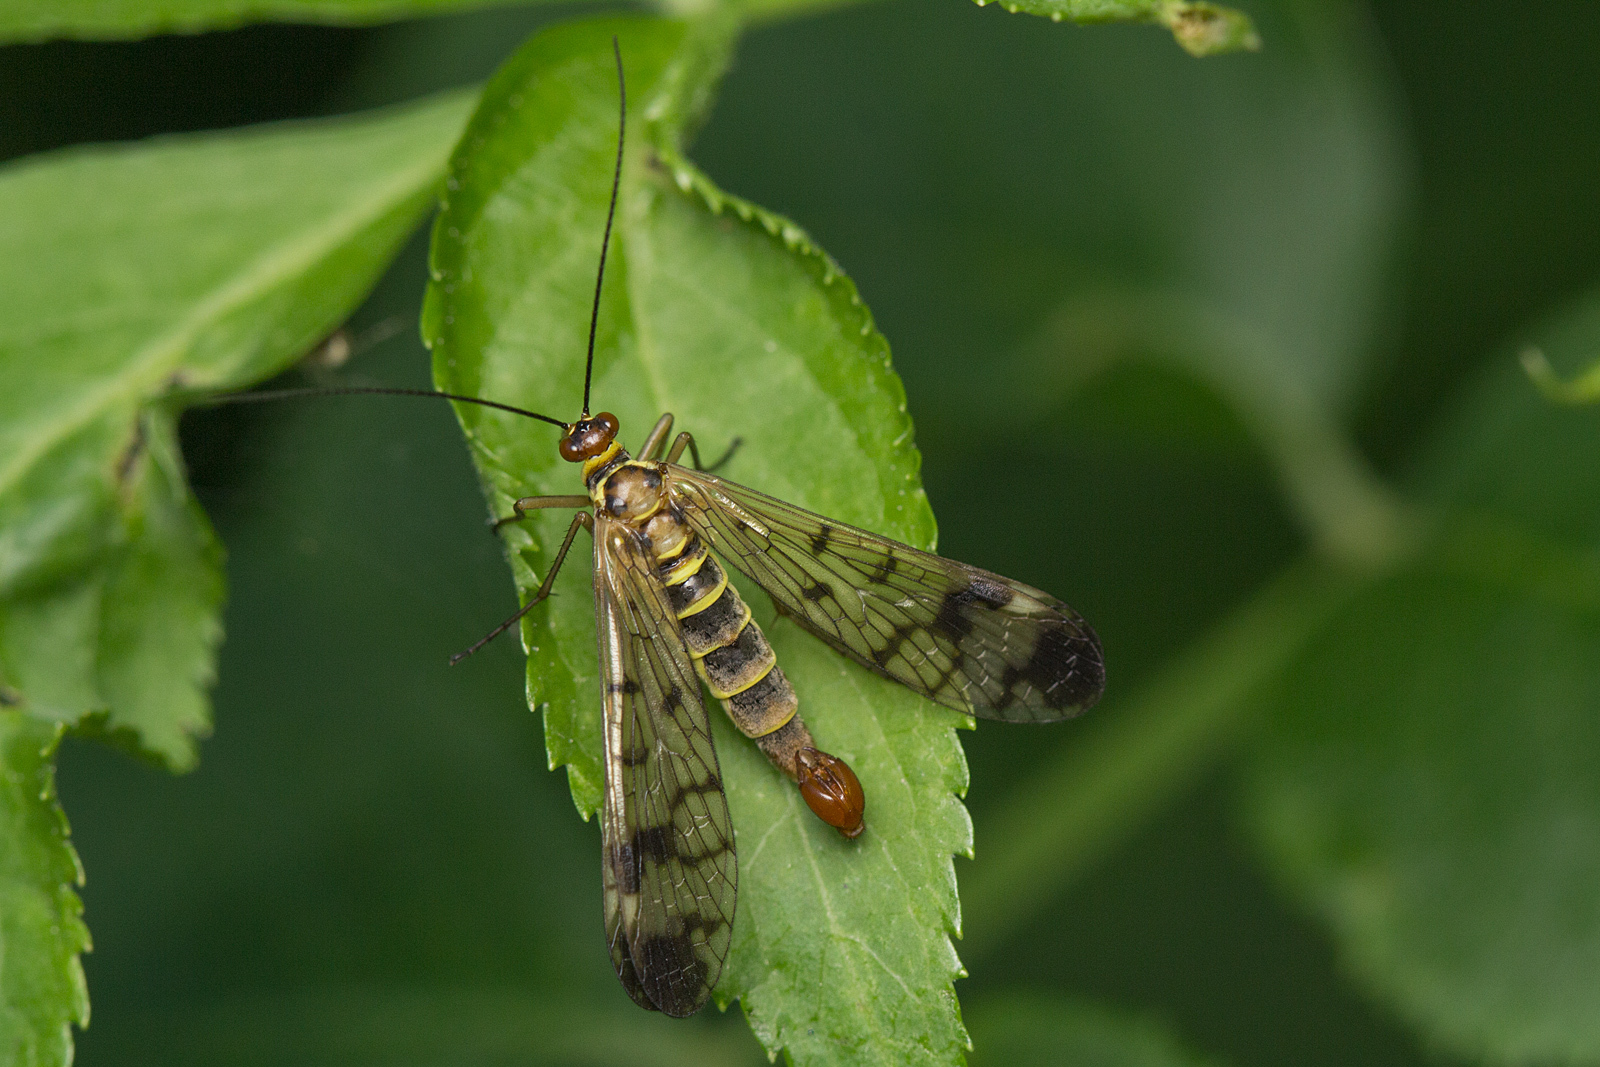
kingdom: Animalia
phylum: Arthropoda
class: Insecta
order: Mecoptera
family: Panorpidae
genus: Panorpa
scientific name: Panorpa communis
